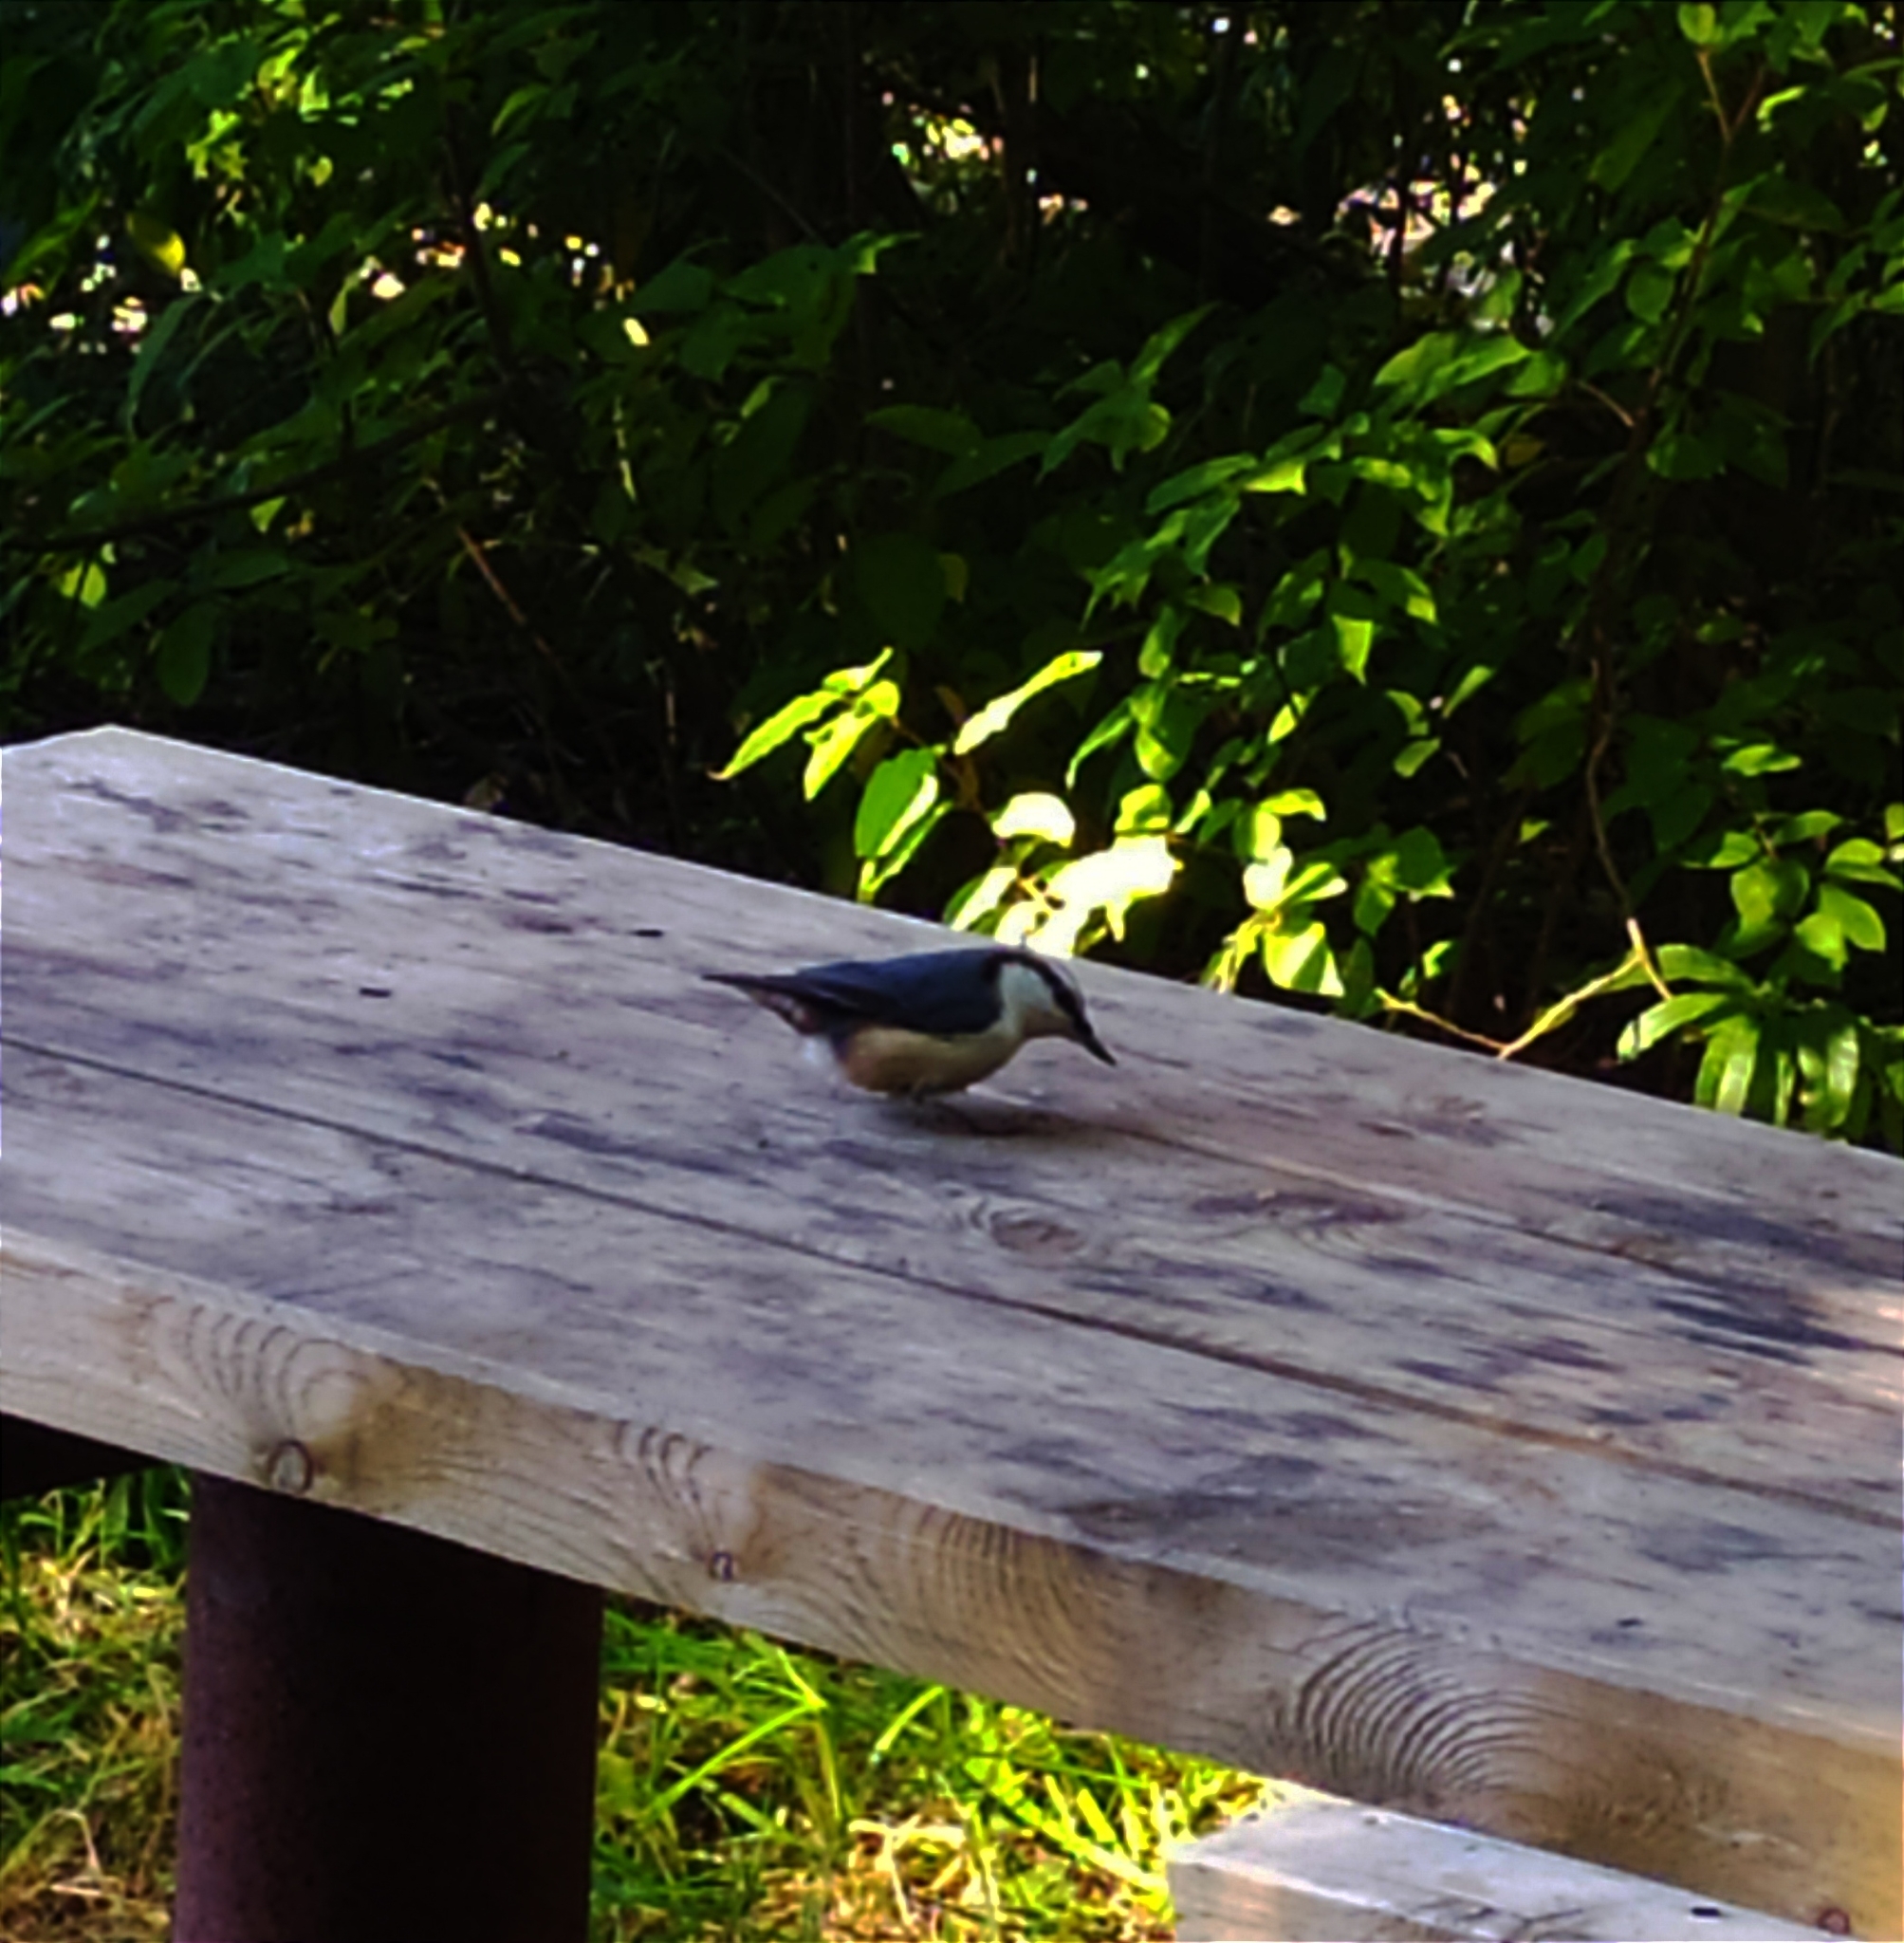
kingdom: Animalia
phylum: Chordata
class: Aves
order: Passeriformes
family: Sittidae
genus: Sitta
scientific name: Sitta europaea
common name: Eurasian nuthatch
